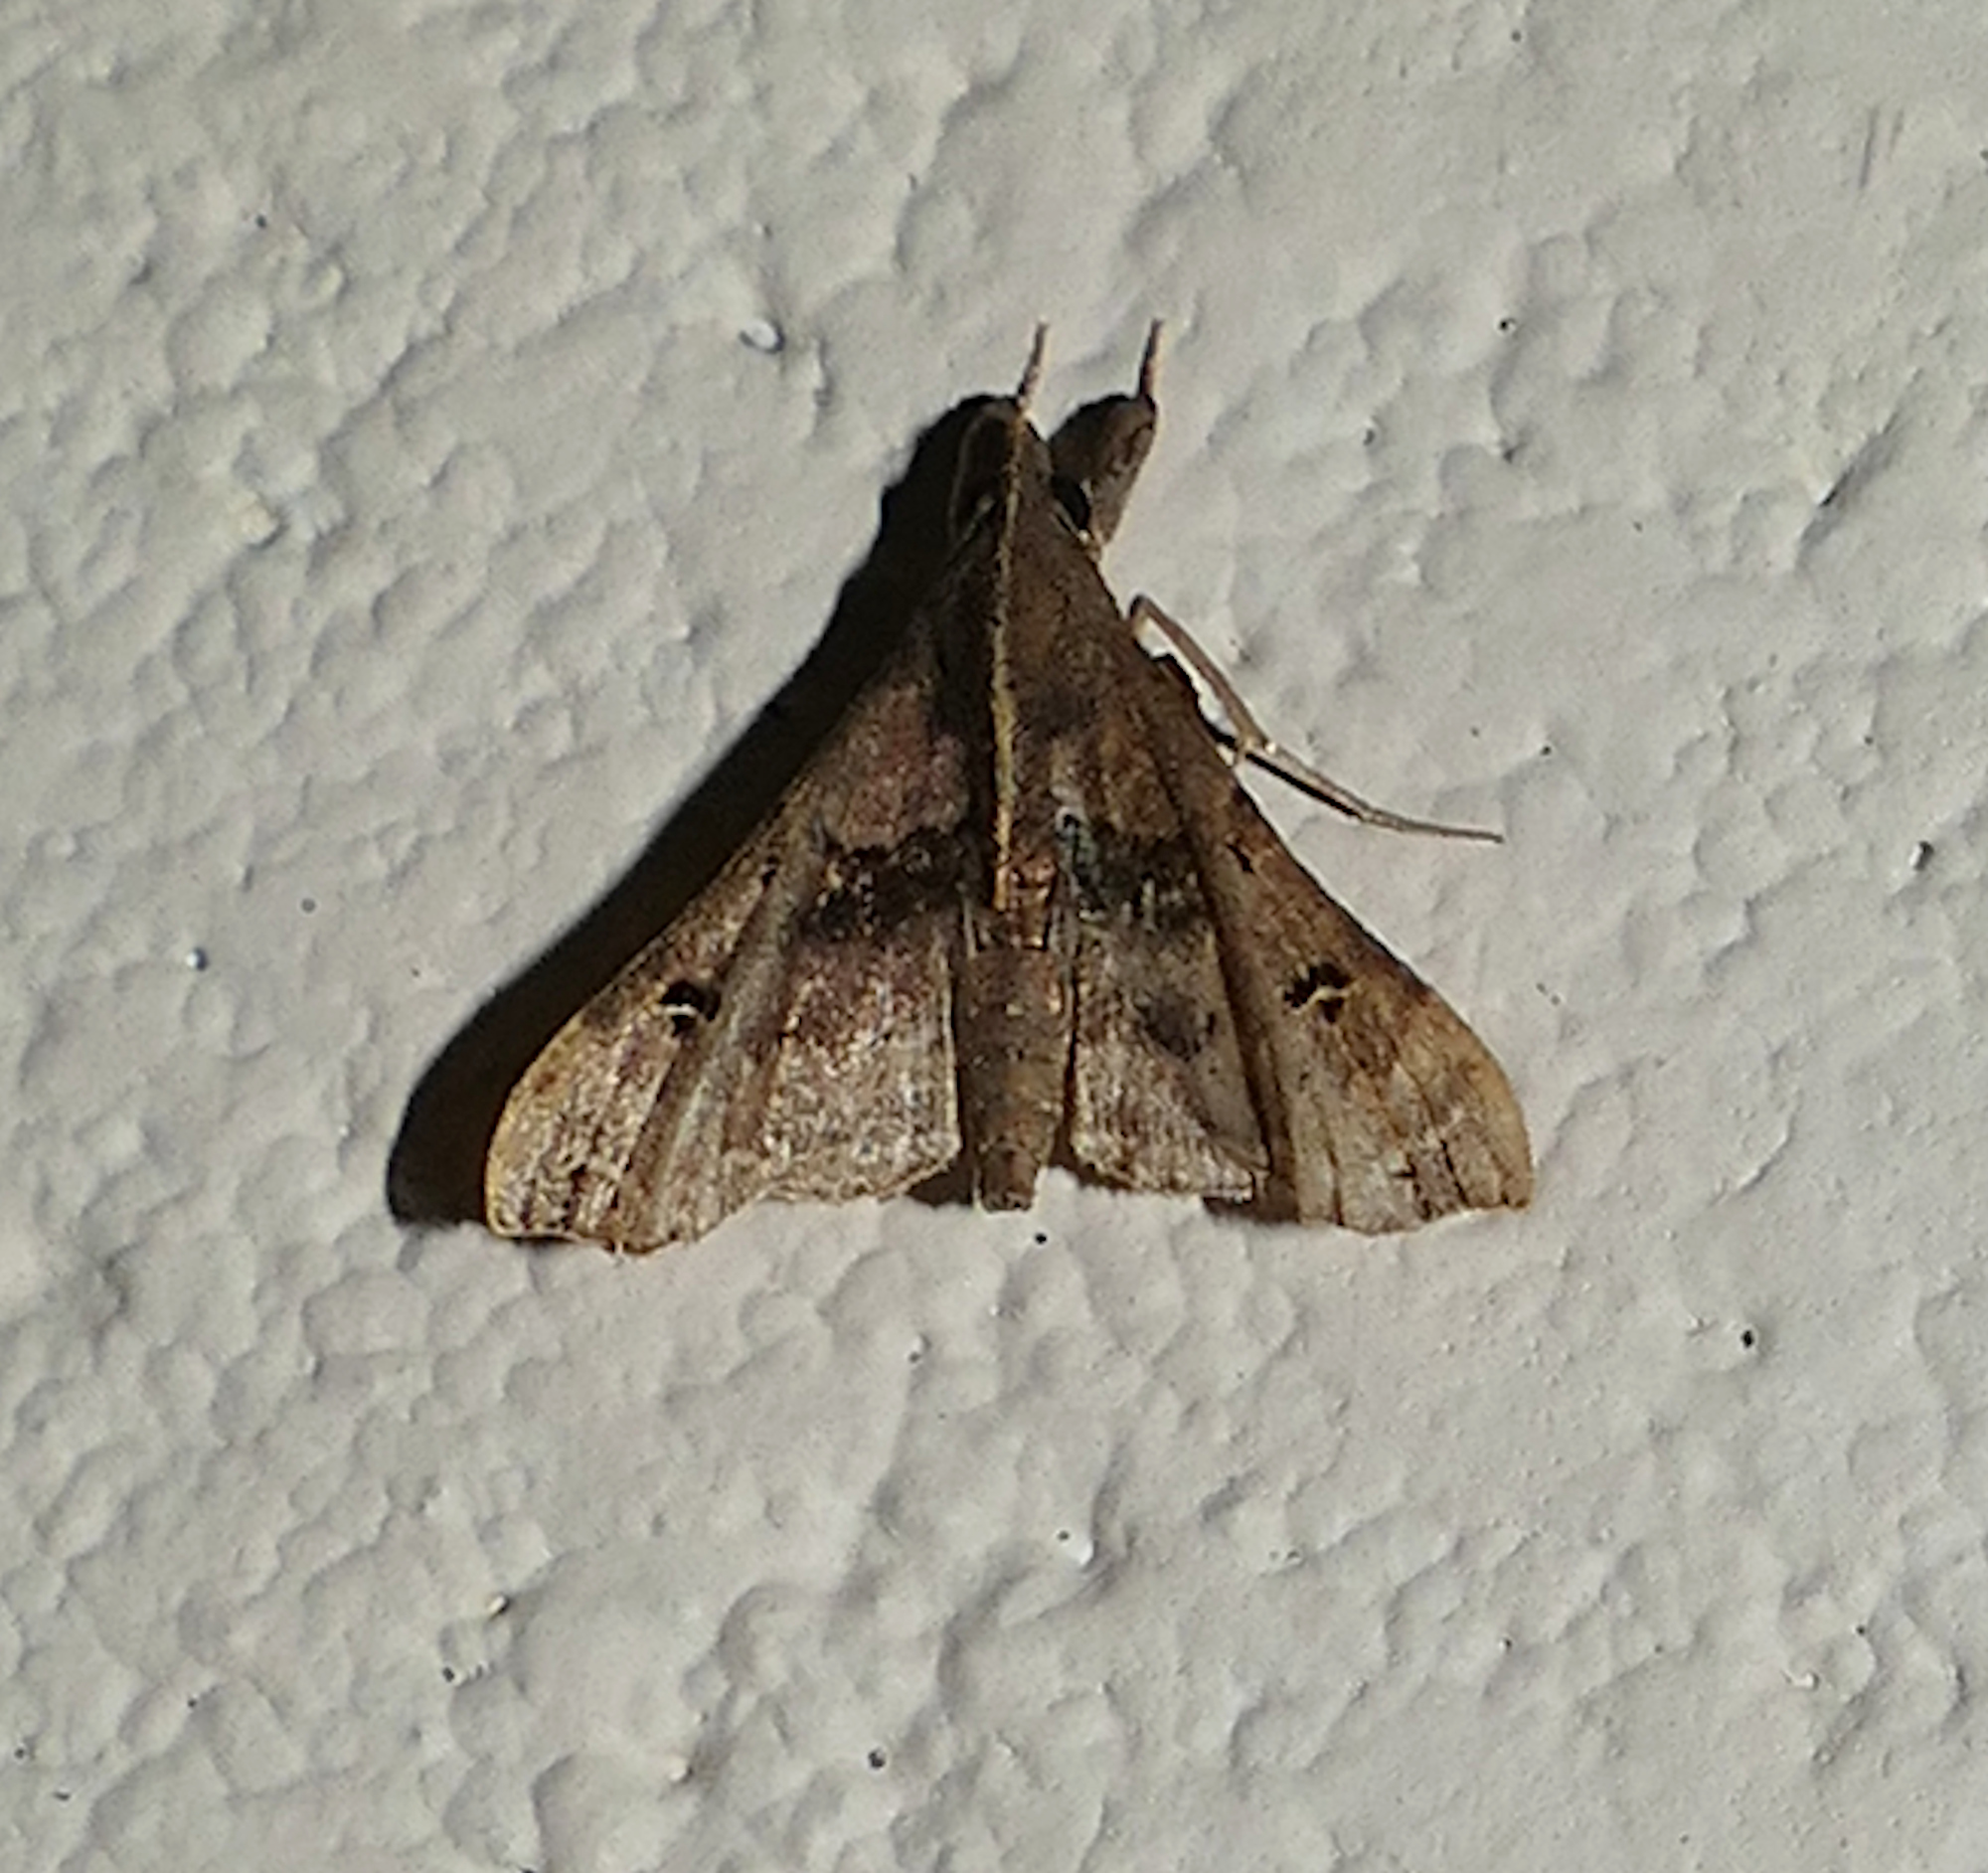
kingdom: Animalia
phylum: Arthropoda
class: Insecta
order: Lepidoptera
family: Erebidae
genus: Palthis
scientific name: Palthis asopialis
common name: Faint-spotted palthis moth
